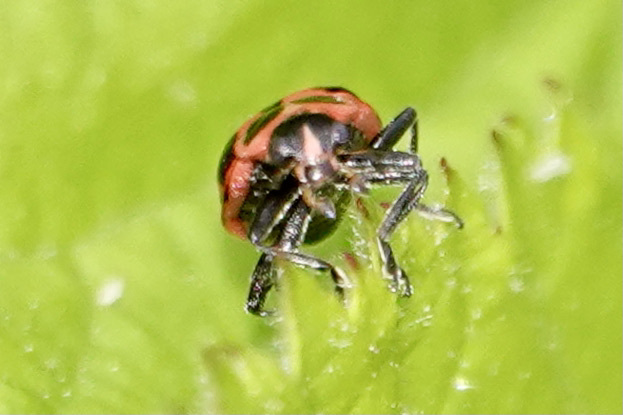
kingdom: Animalia
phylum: Arthropoda
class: Insecta
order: Coleoptera
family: Coccinellidae
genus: Coleomegilla
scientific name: Coleomegilla maculata
